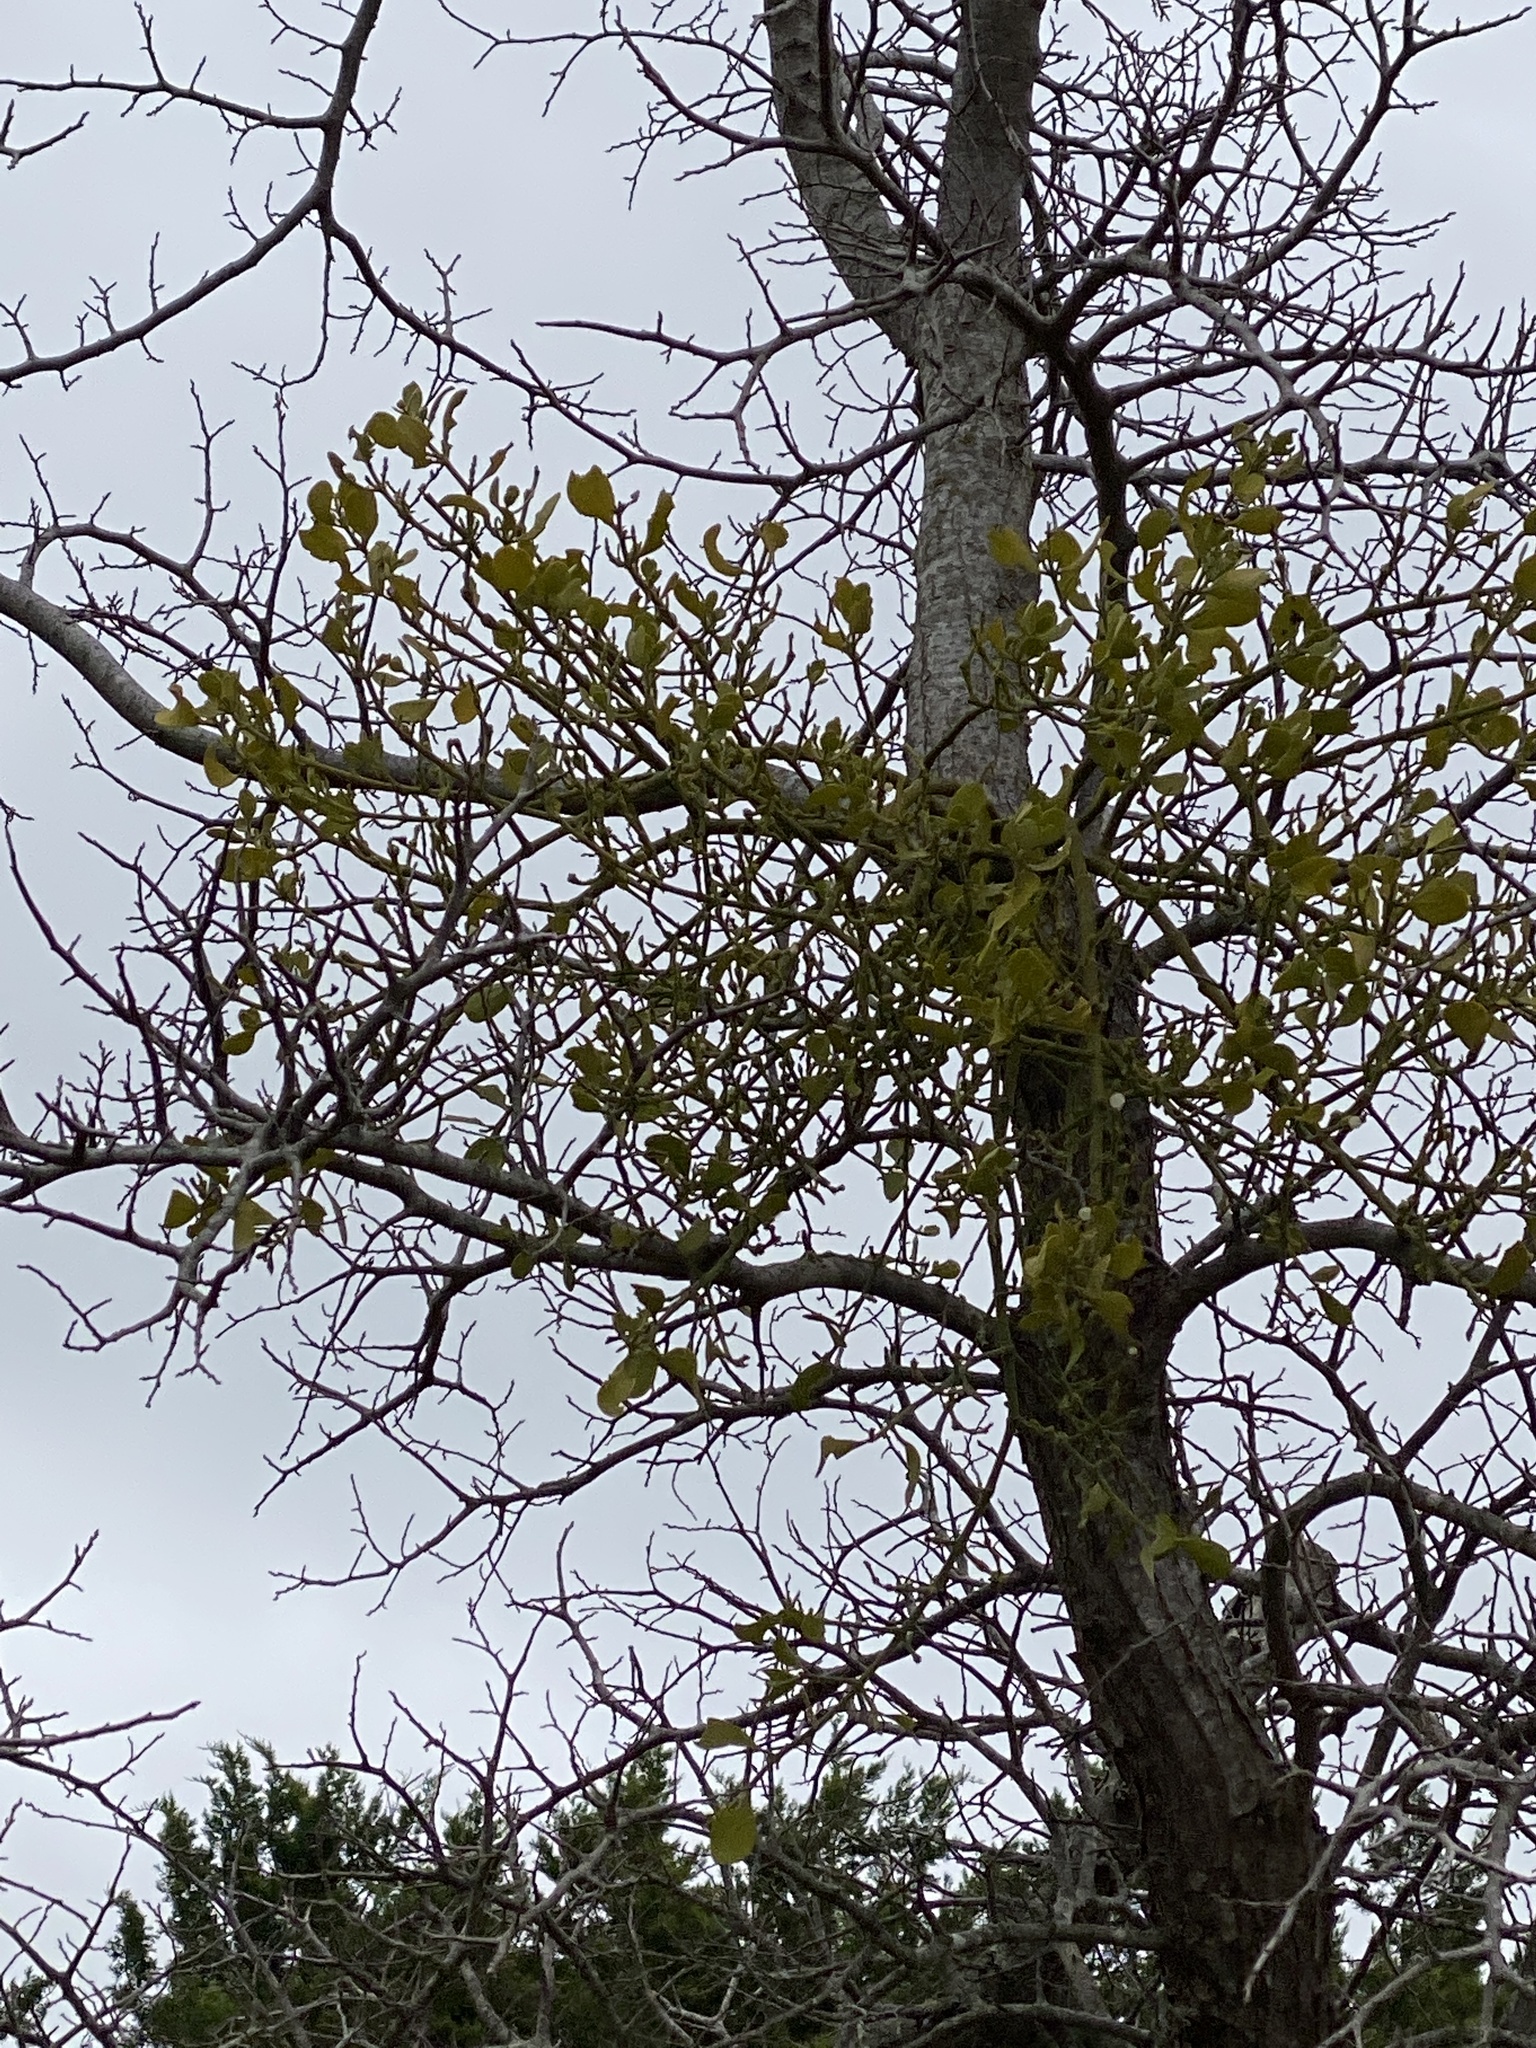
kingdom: Plantae
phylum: Tracheophyta
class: Magnoliopsida
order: Santalales
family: Viscaceae
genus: Phoradendron
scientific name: Phoradendron leucarpum
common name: Pacific mistletoe
